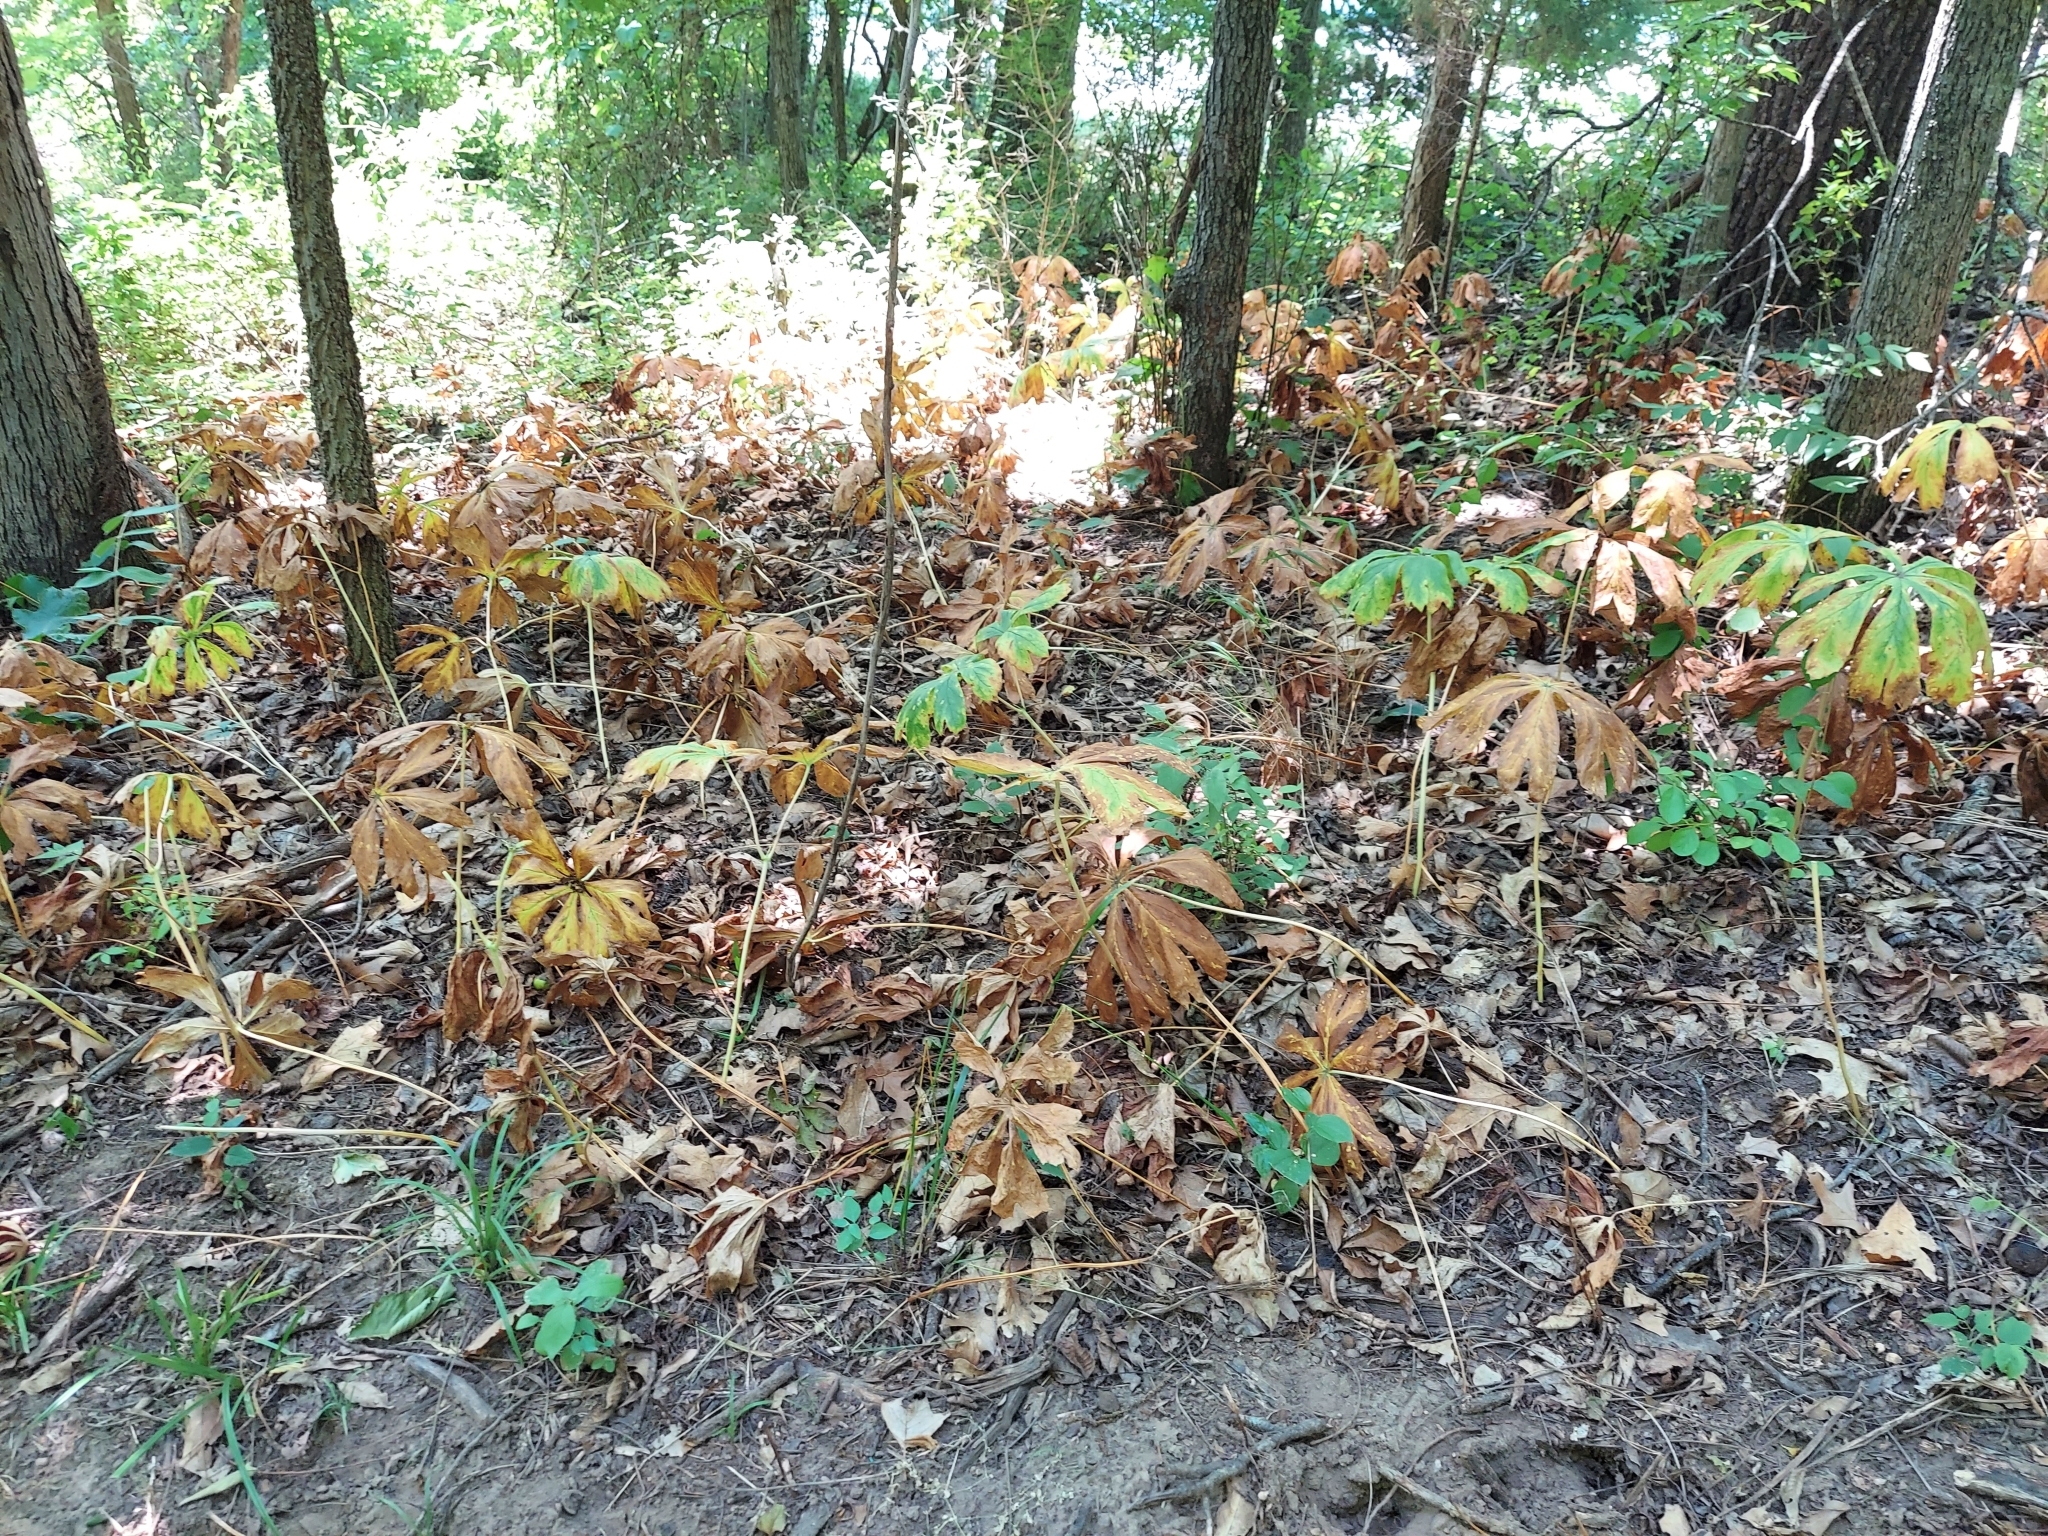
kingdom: Plantae
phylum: Tracheophyta
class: Magnoliopsida
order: Ranunculales
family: Berberidaceae
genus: Podophyllum
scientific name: Podophyllum peltatum
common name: Wild mandrake
